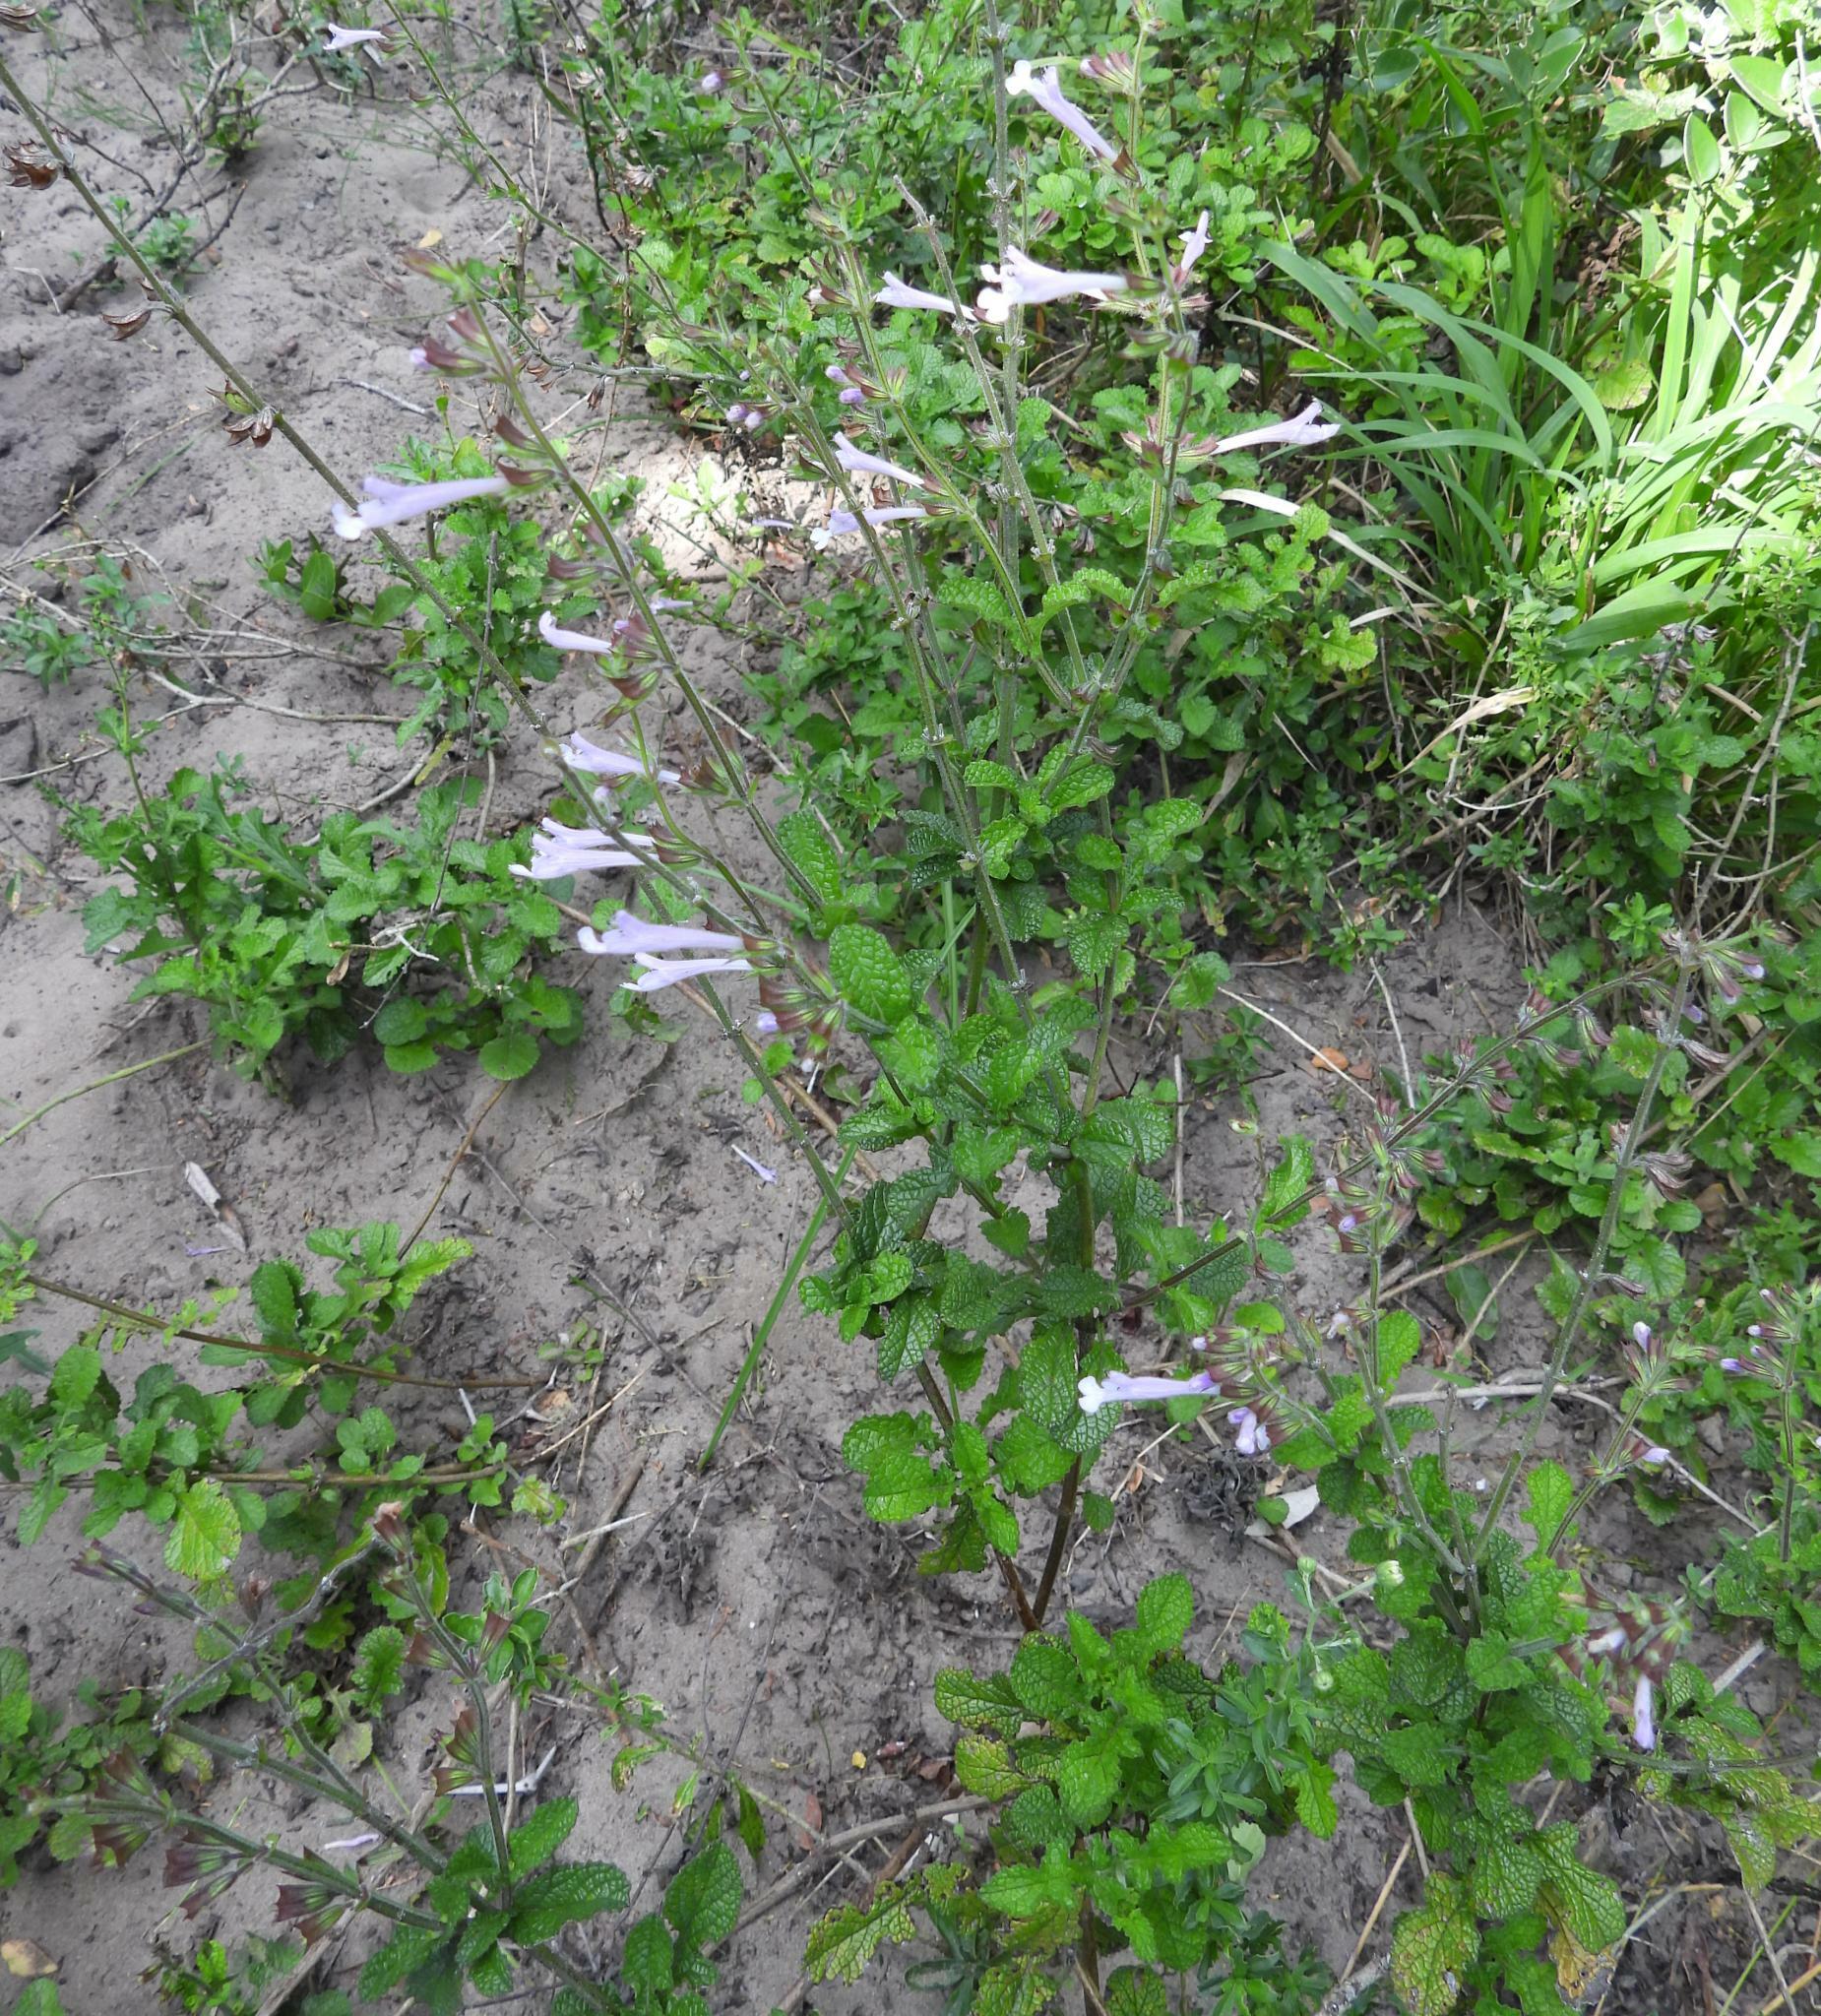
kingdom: Plantae
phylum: Tracheophyta
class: Magnoliopsida
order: Lamiales
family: Lamiaceae
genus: Salvia
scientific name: Salvia scabra
